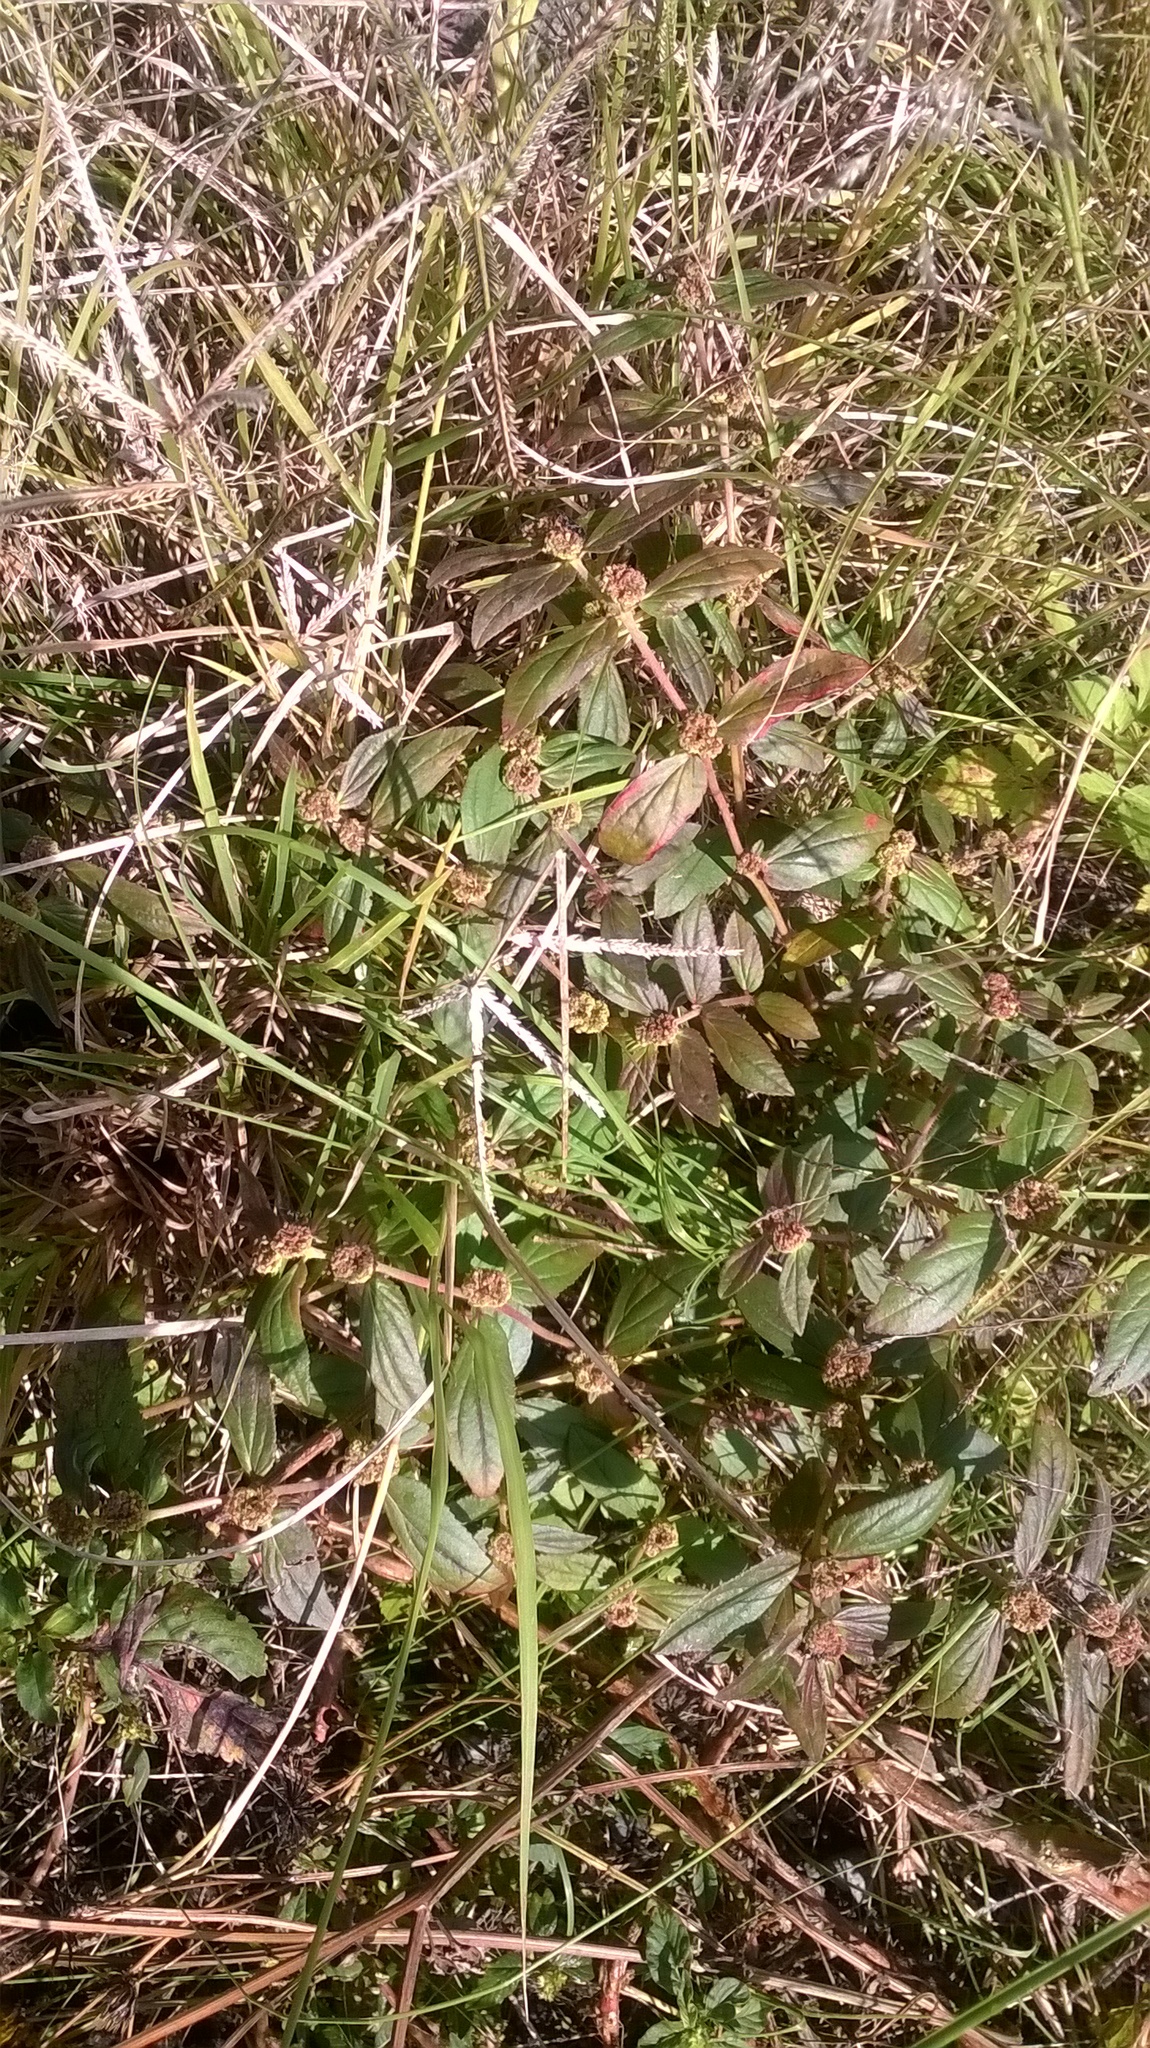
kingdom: Plantae
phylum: Tracheophyta
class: Magnoliopsida
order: Malpighiales
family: Euphorbiaceae
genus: Euphorbia
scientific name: Euphorbia hirta
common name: Pillpod sandmat
